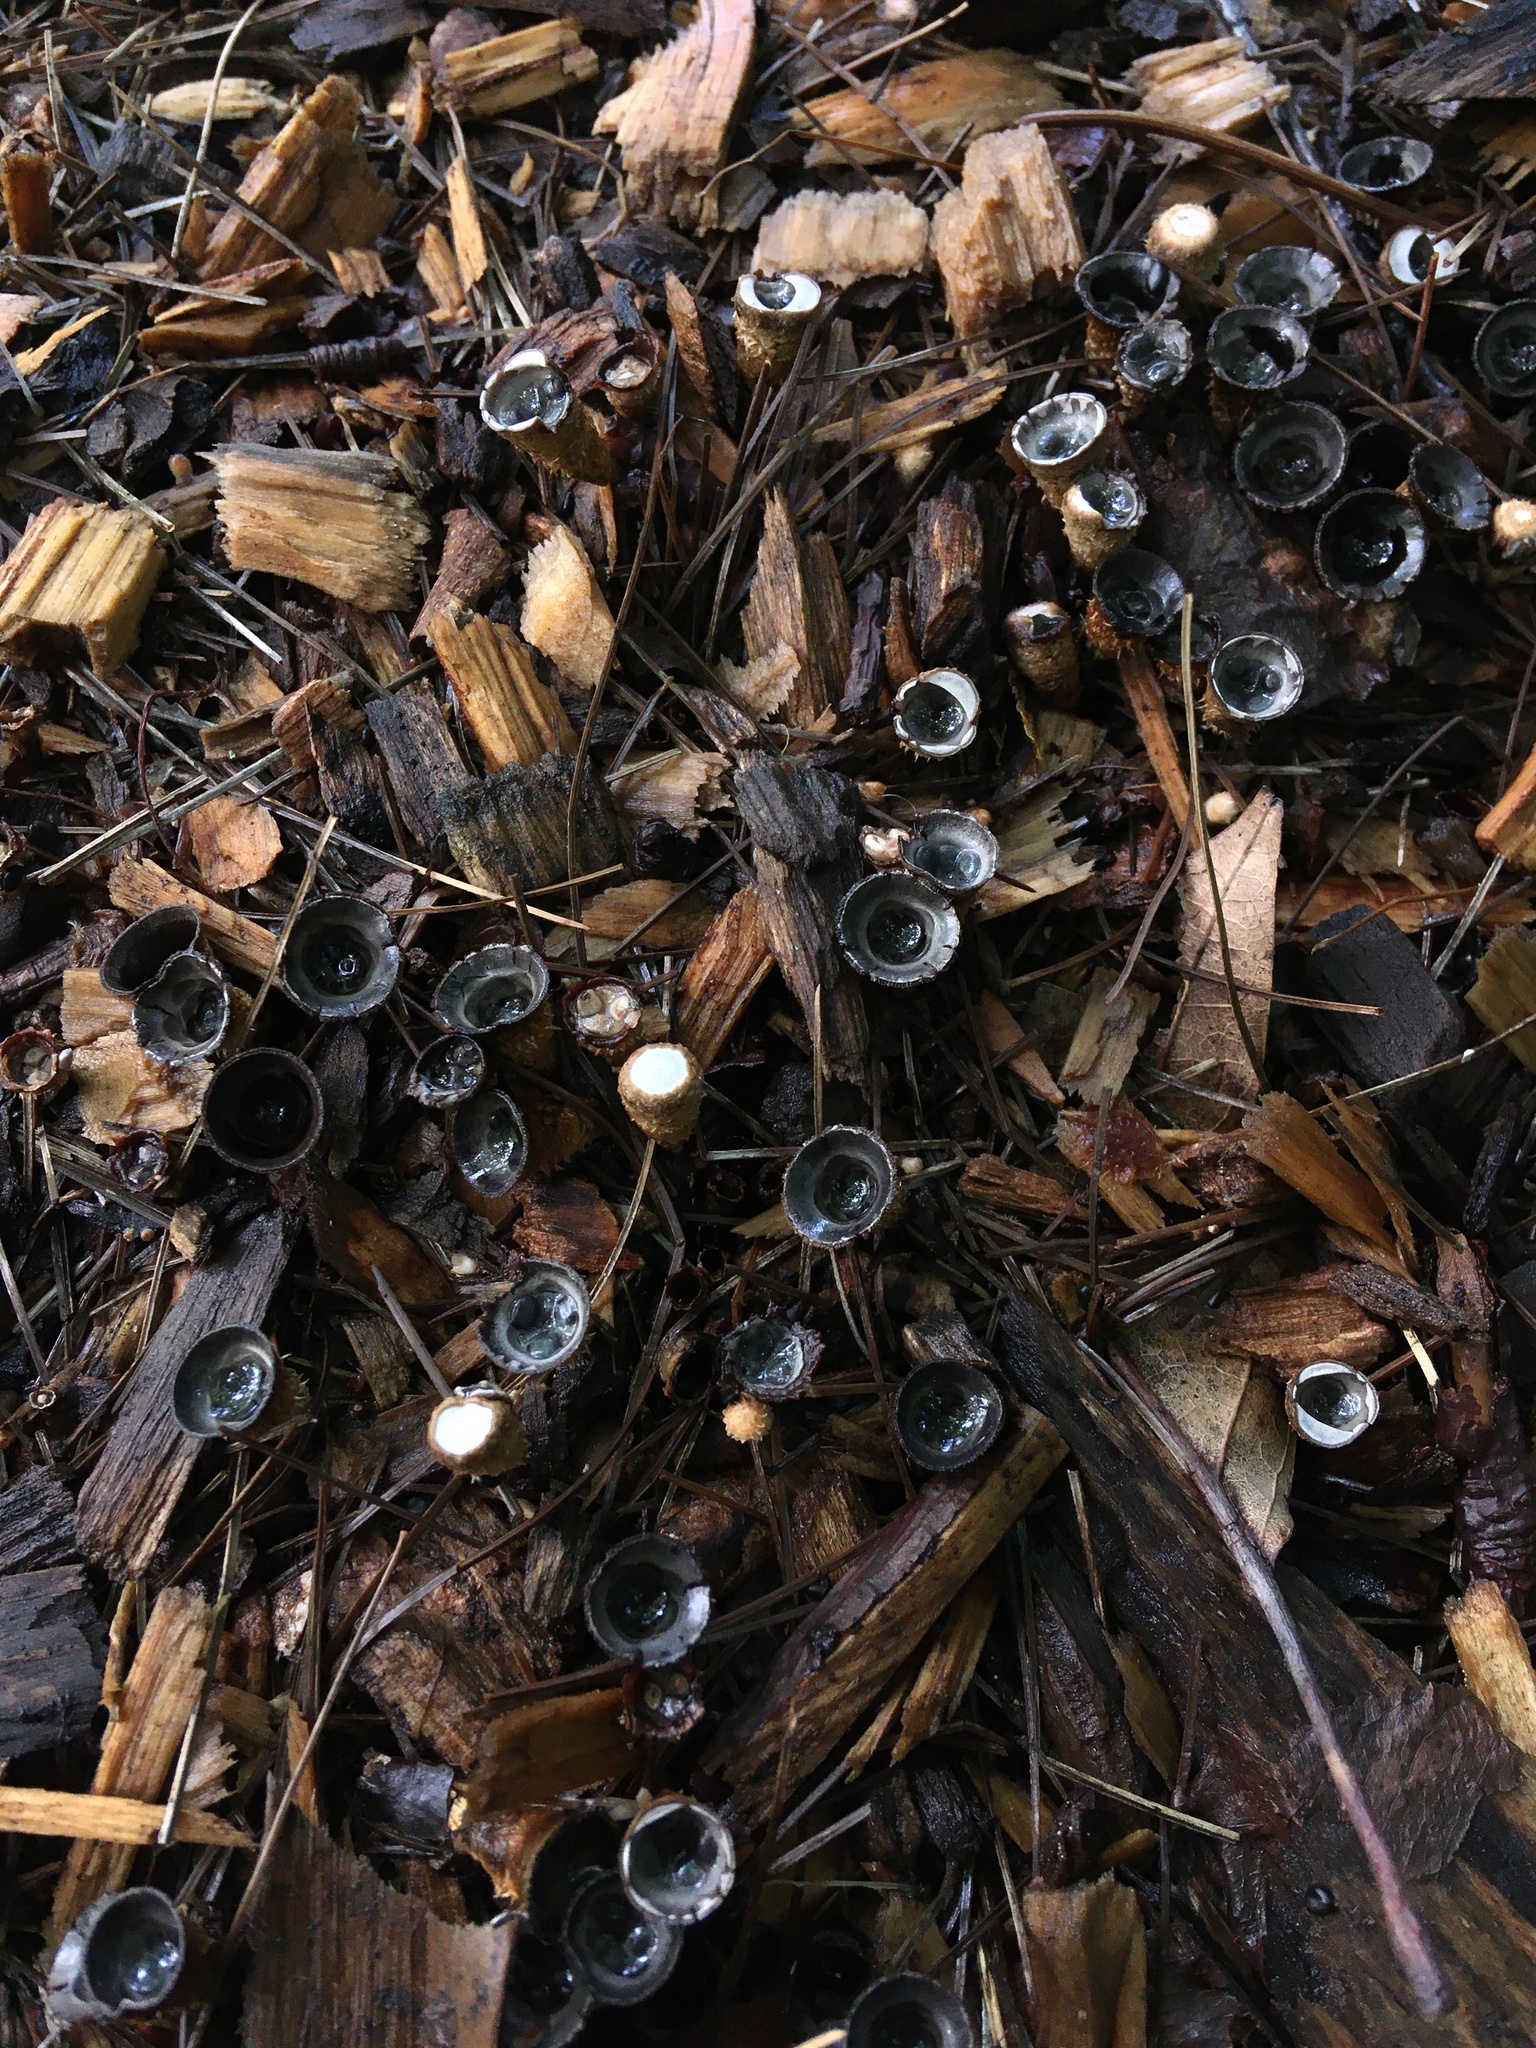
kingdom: Fungi
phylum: Basidiomycota
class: Agaricomycetes
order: Agaricales
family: Agaricaceae
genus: Cyathus
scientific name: Cyathus stercoreus
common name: Dung bird's nest
